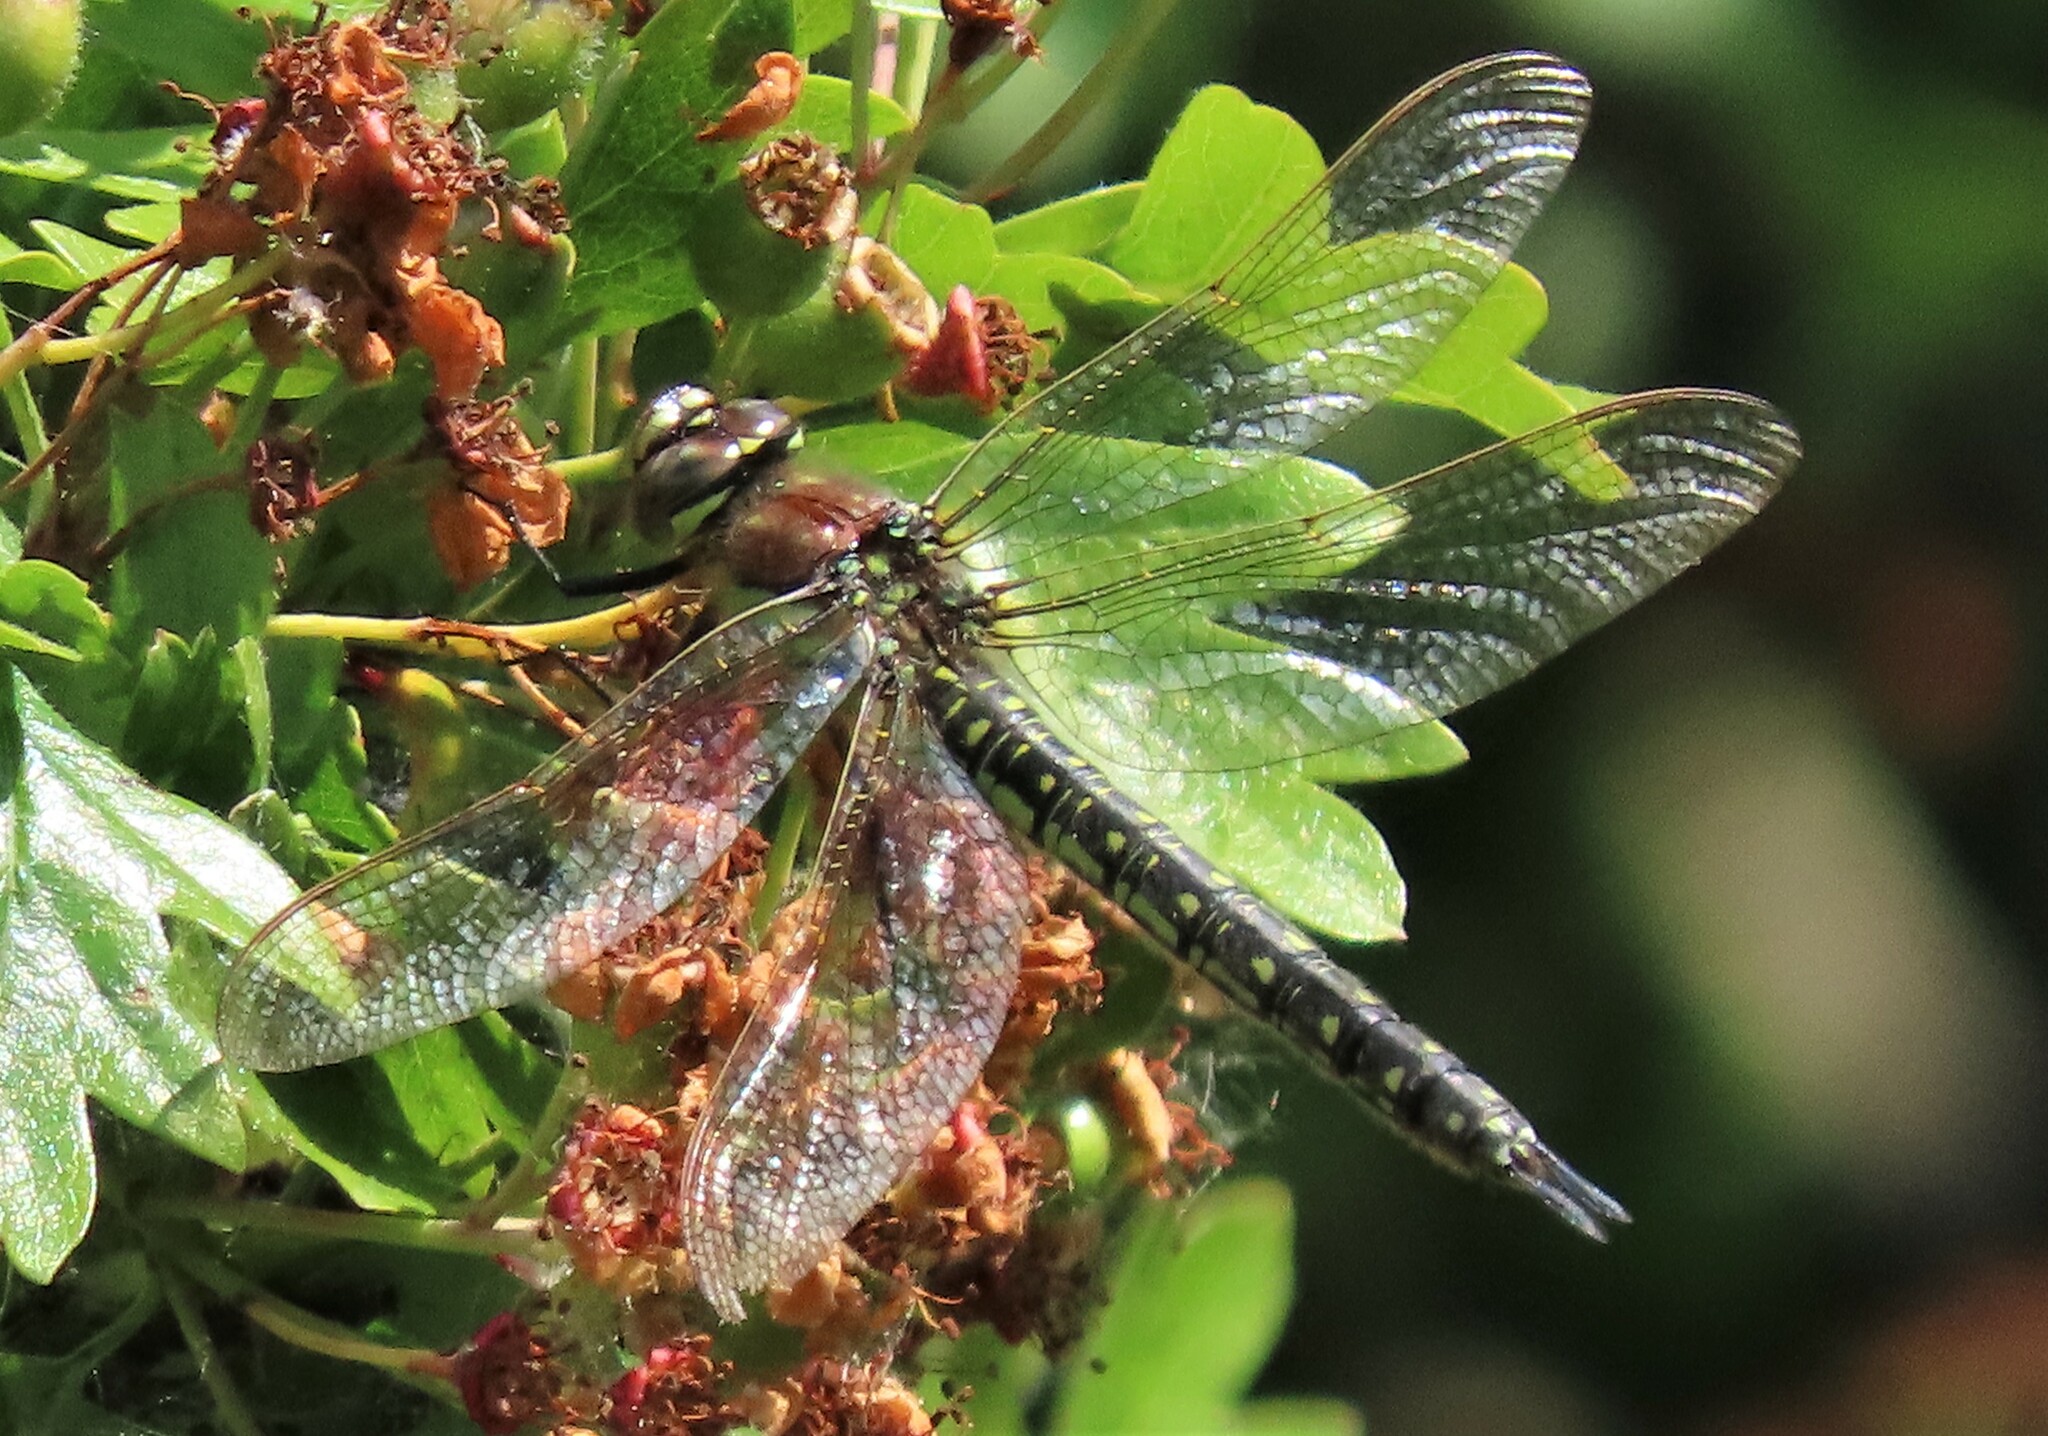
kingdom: Animalia
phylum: Arthropoda
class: Insecta
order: Odonata
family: Aeshnidae
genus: Brachytron
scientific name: Brachytron pratense
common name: Hairy hawker
